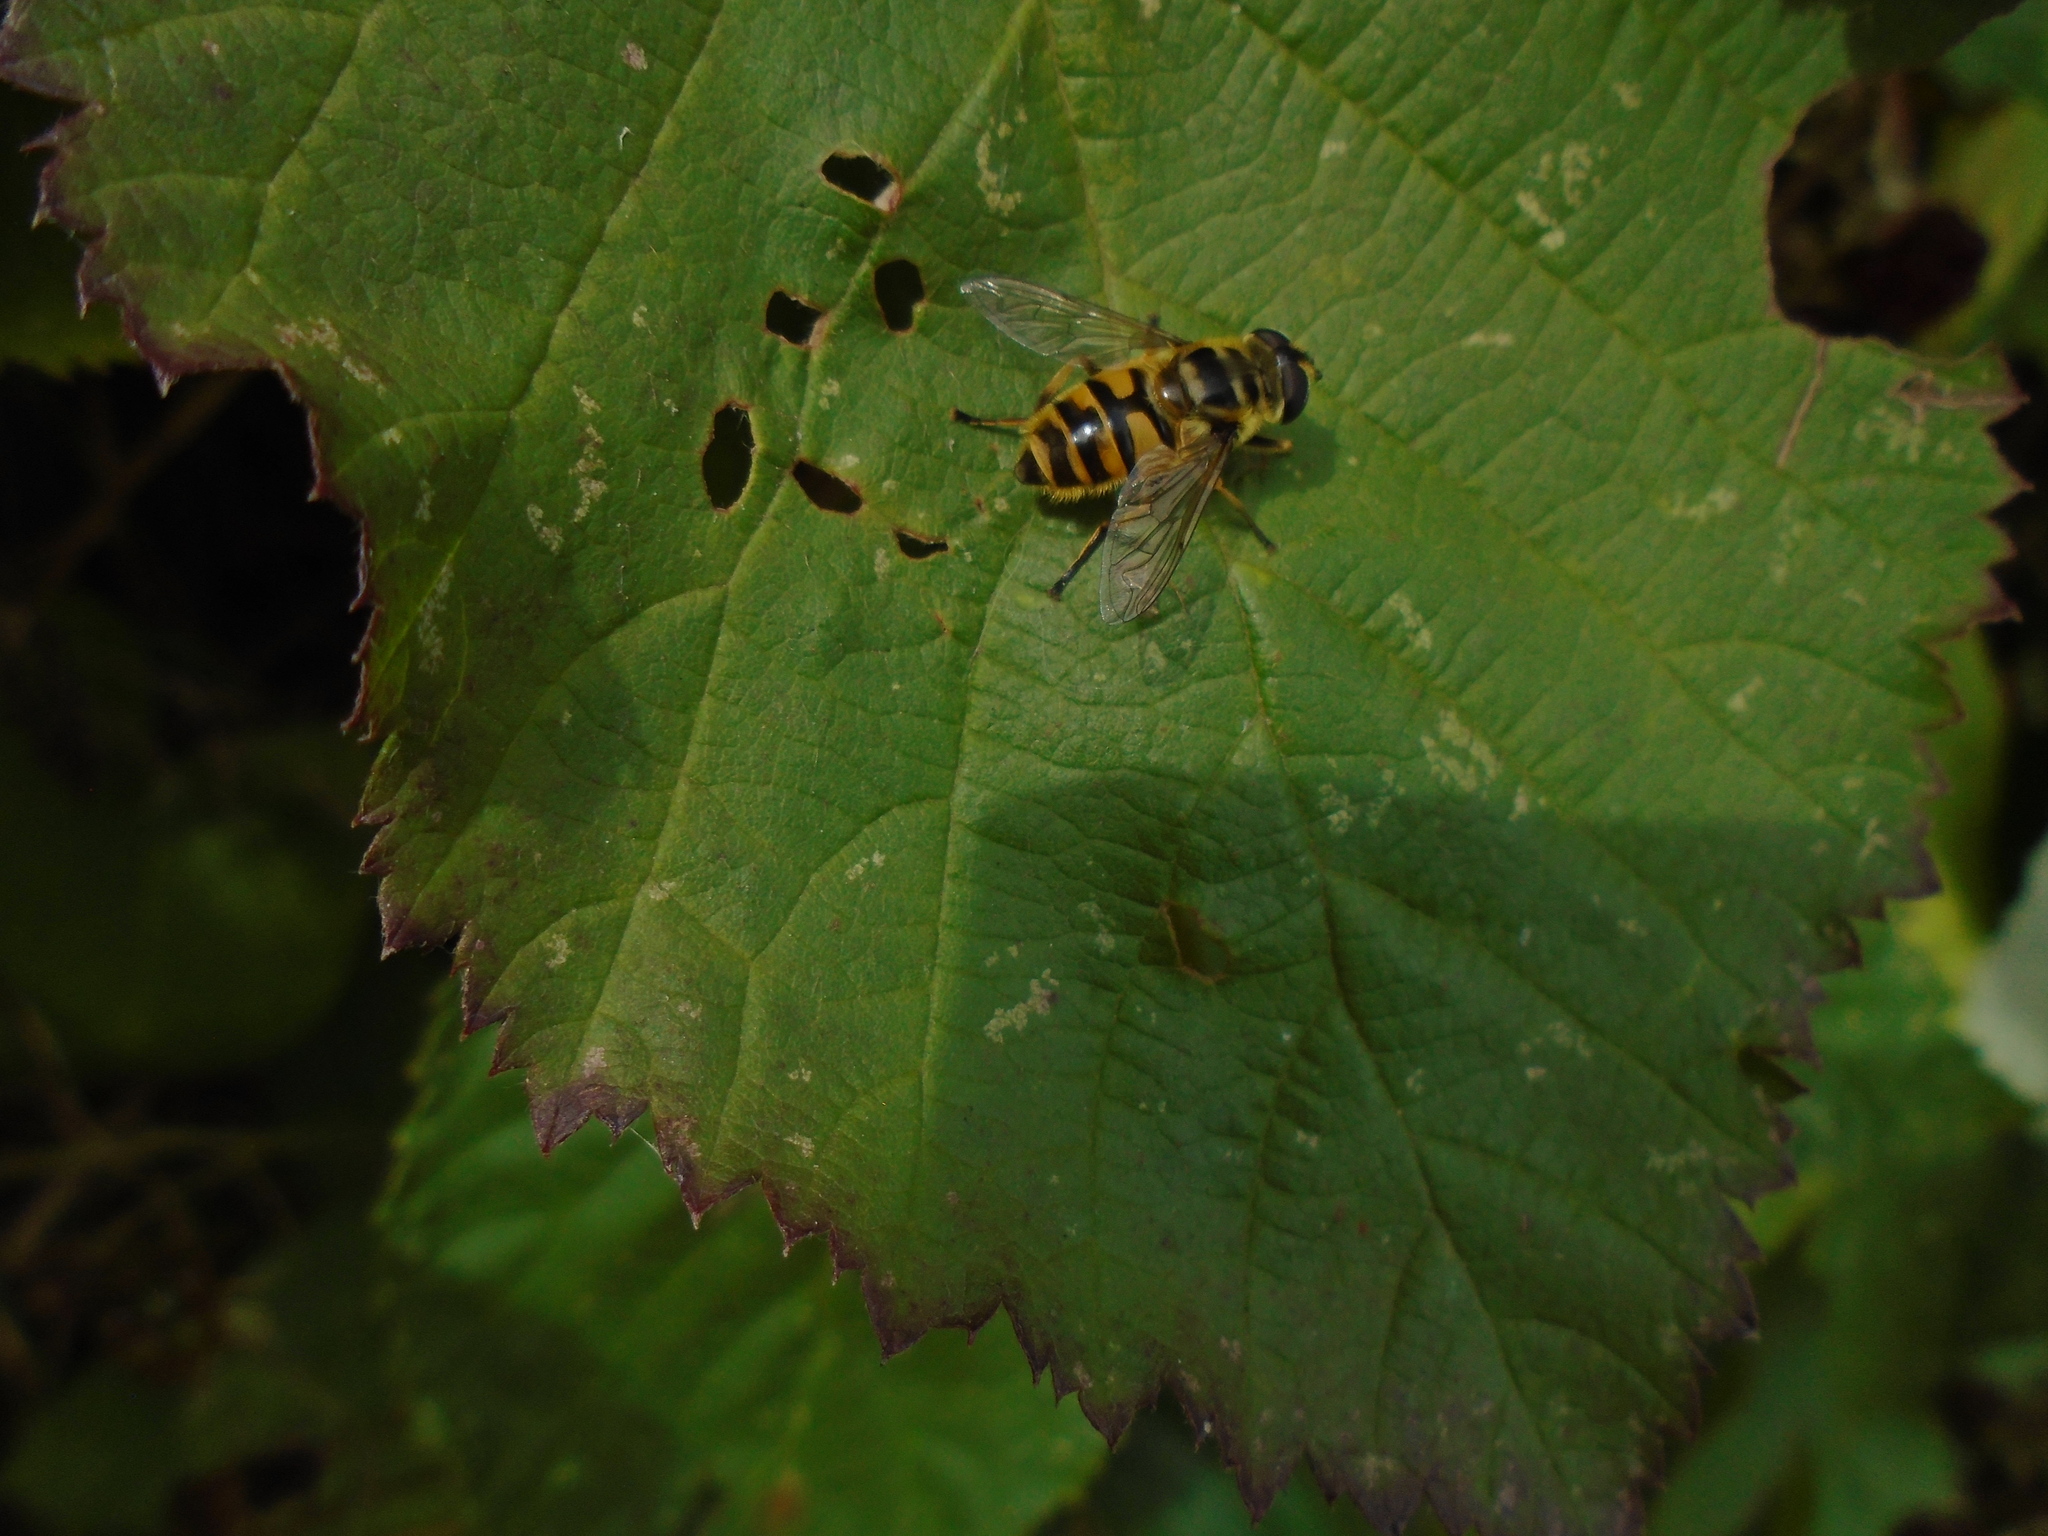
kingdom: Animalia
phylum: Arthropoda
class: Insecta
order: Diptera
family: Syrphidae
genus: Myathropa
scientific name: Myathropa florea
